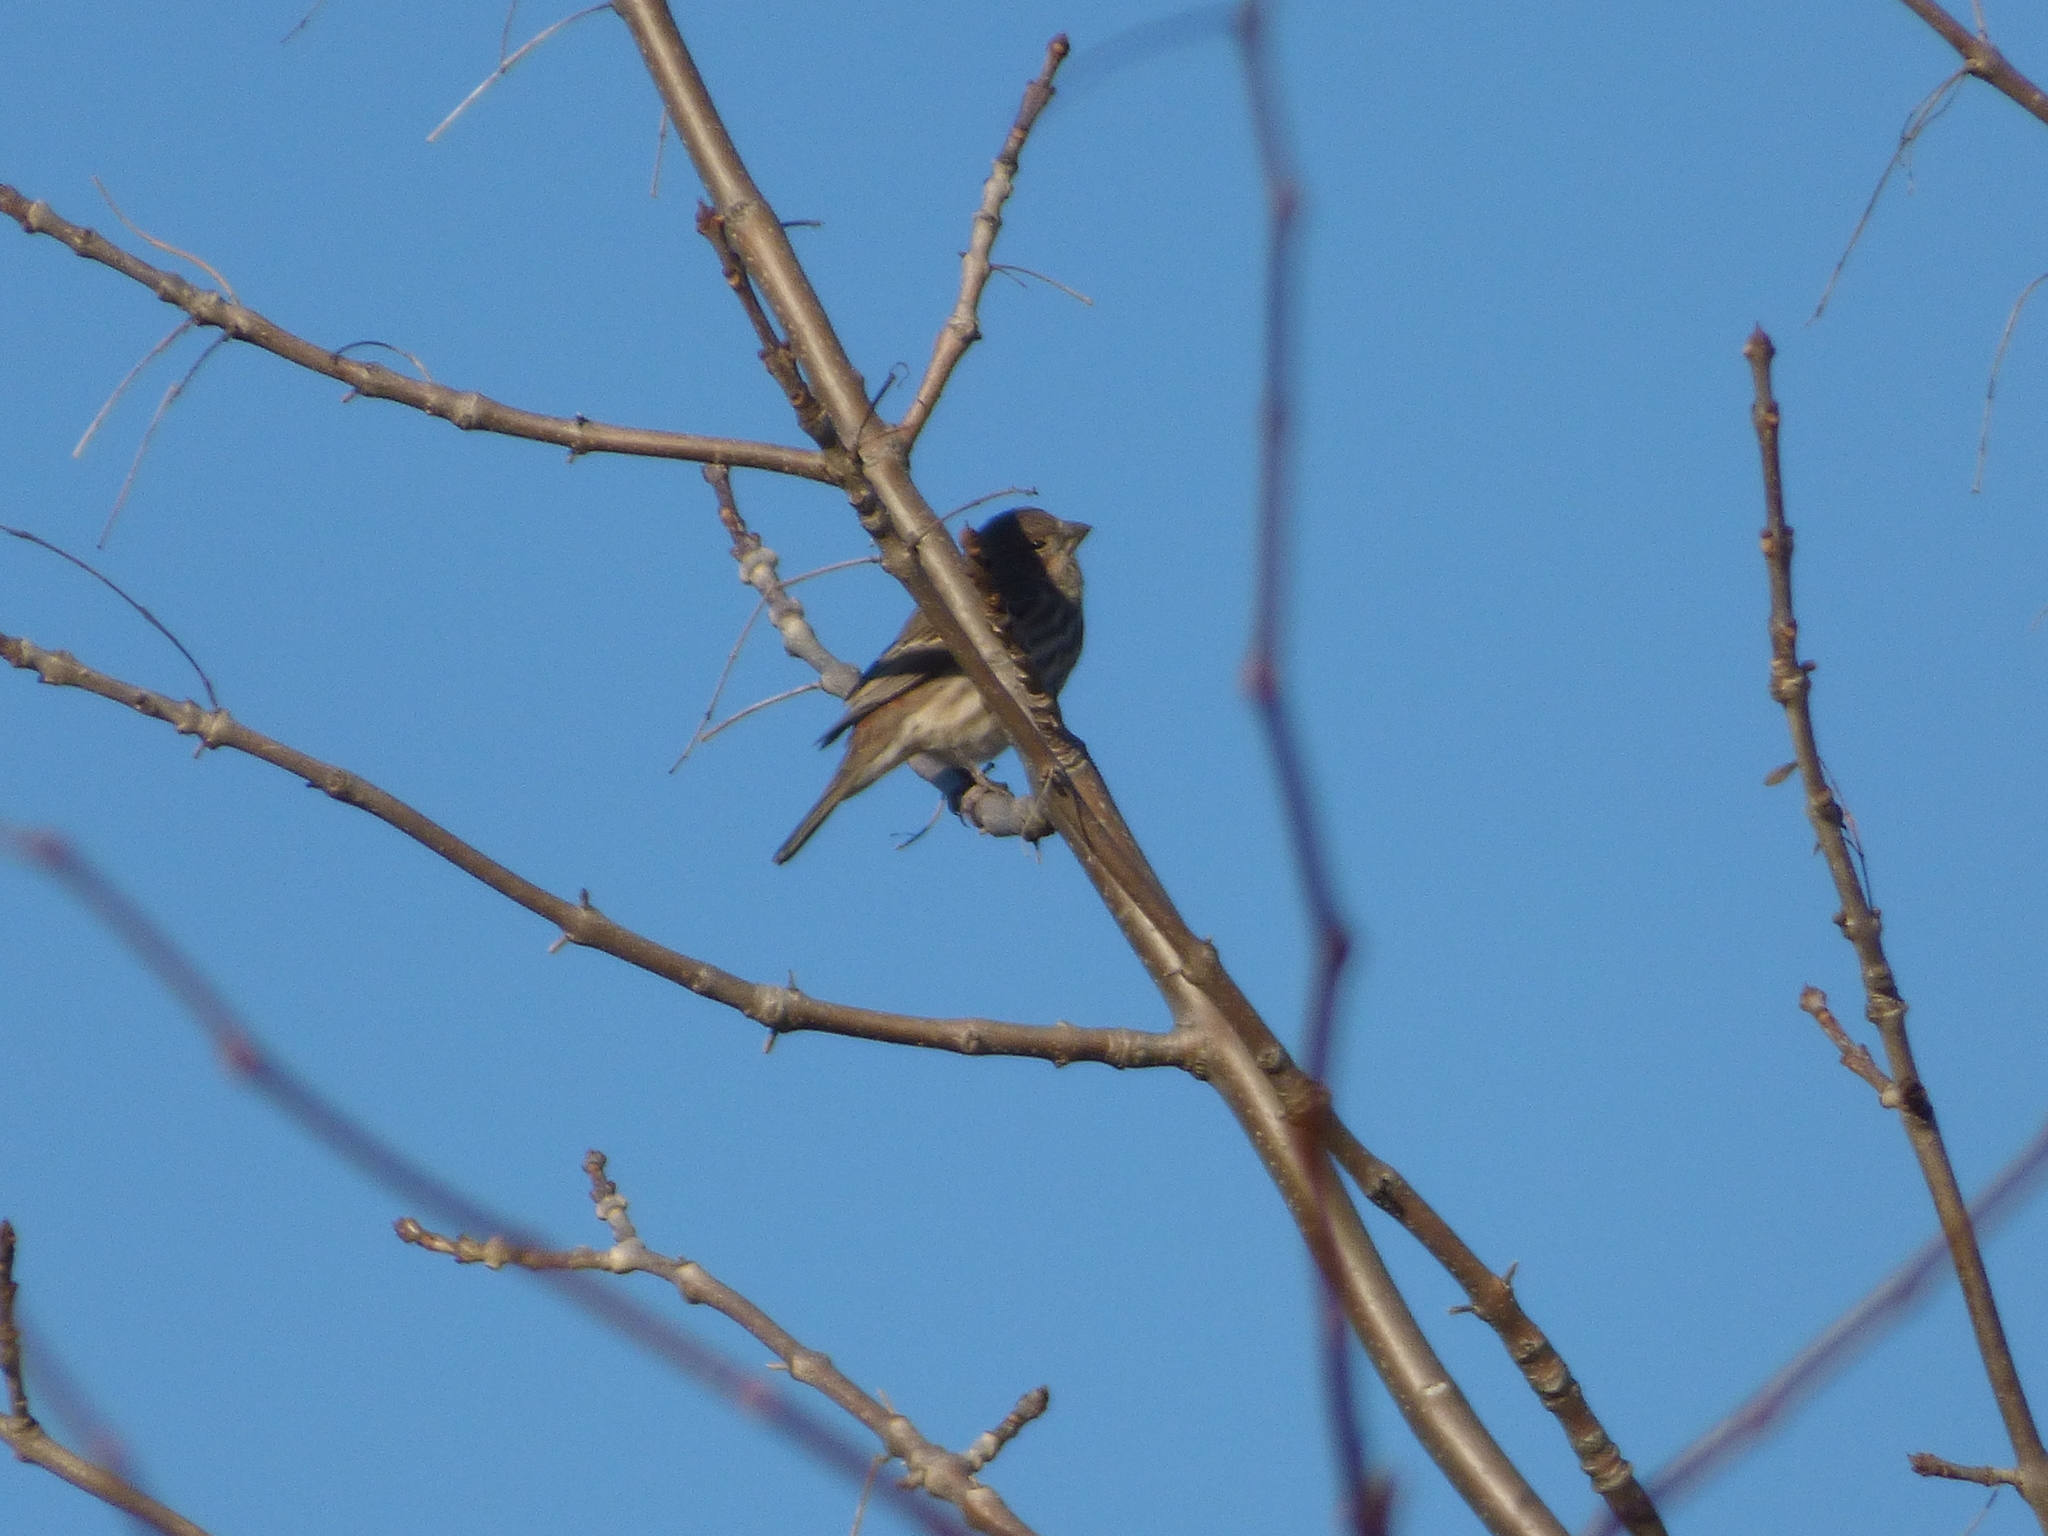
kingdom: Animalia
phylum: Chordata
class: Aves
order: Passeriformes
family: Fringillidae
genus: Haemorhous
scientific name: Haemorhous mexicanus
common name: House finch
